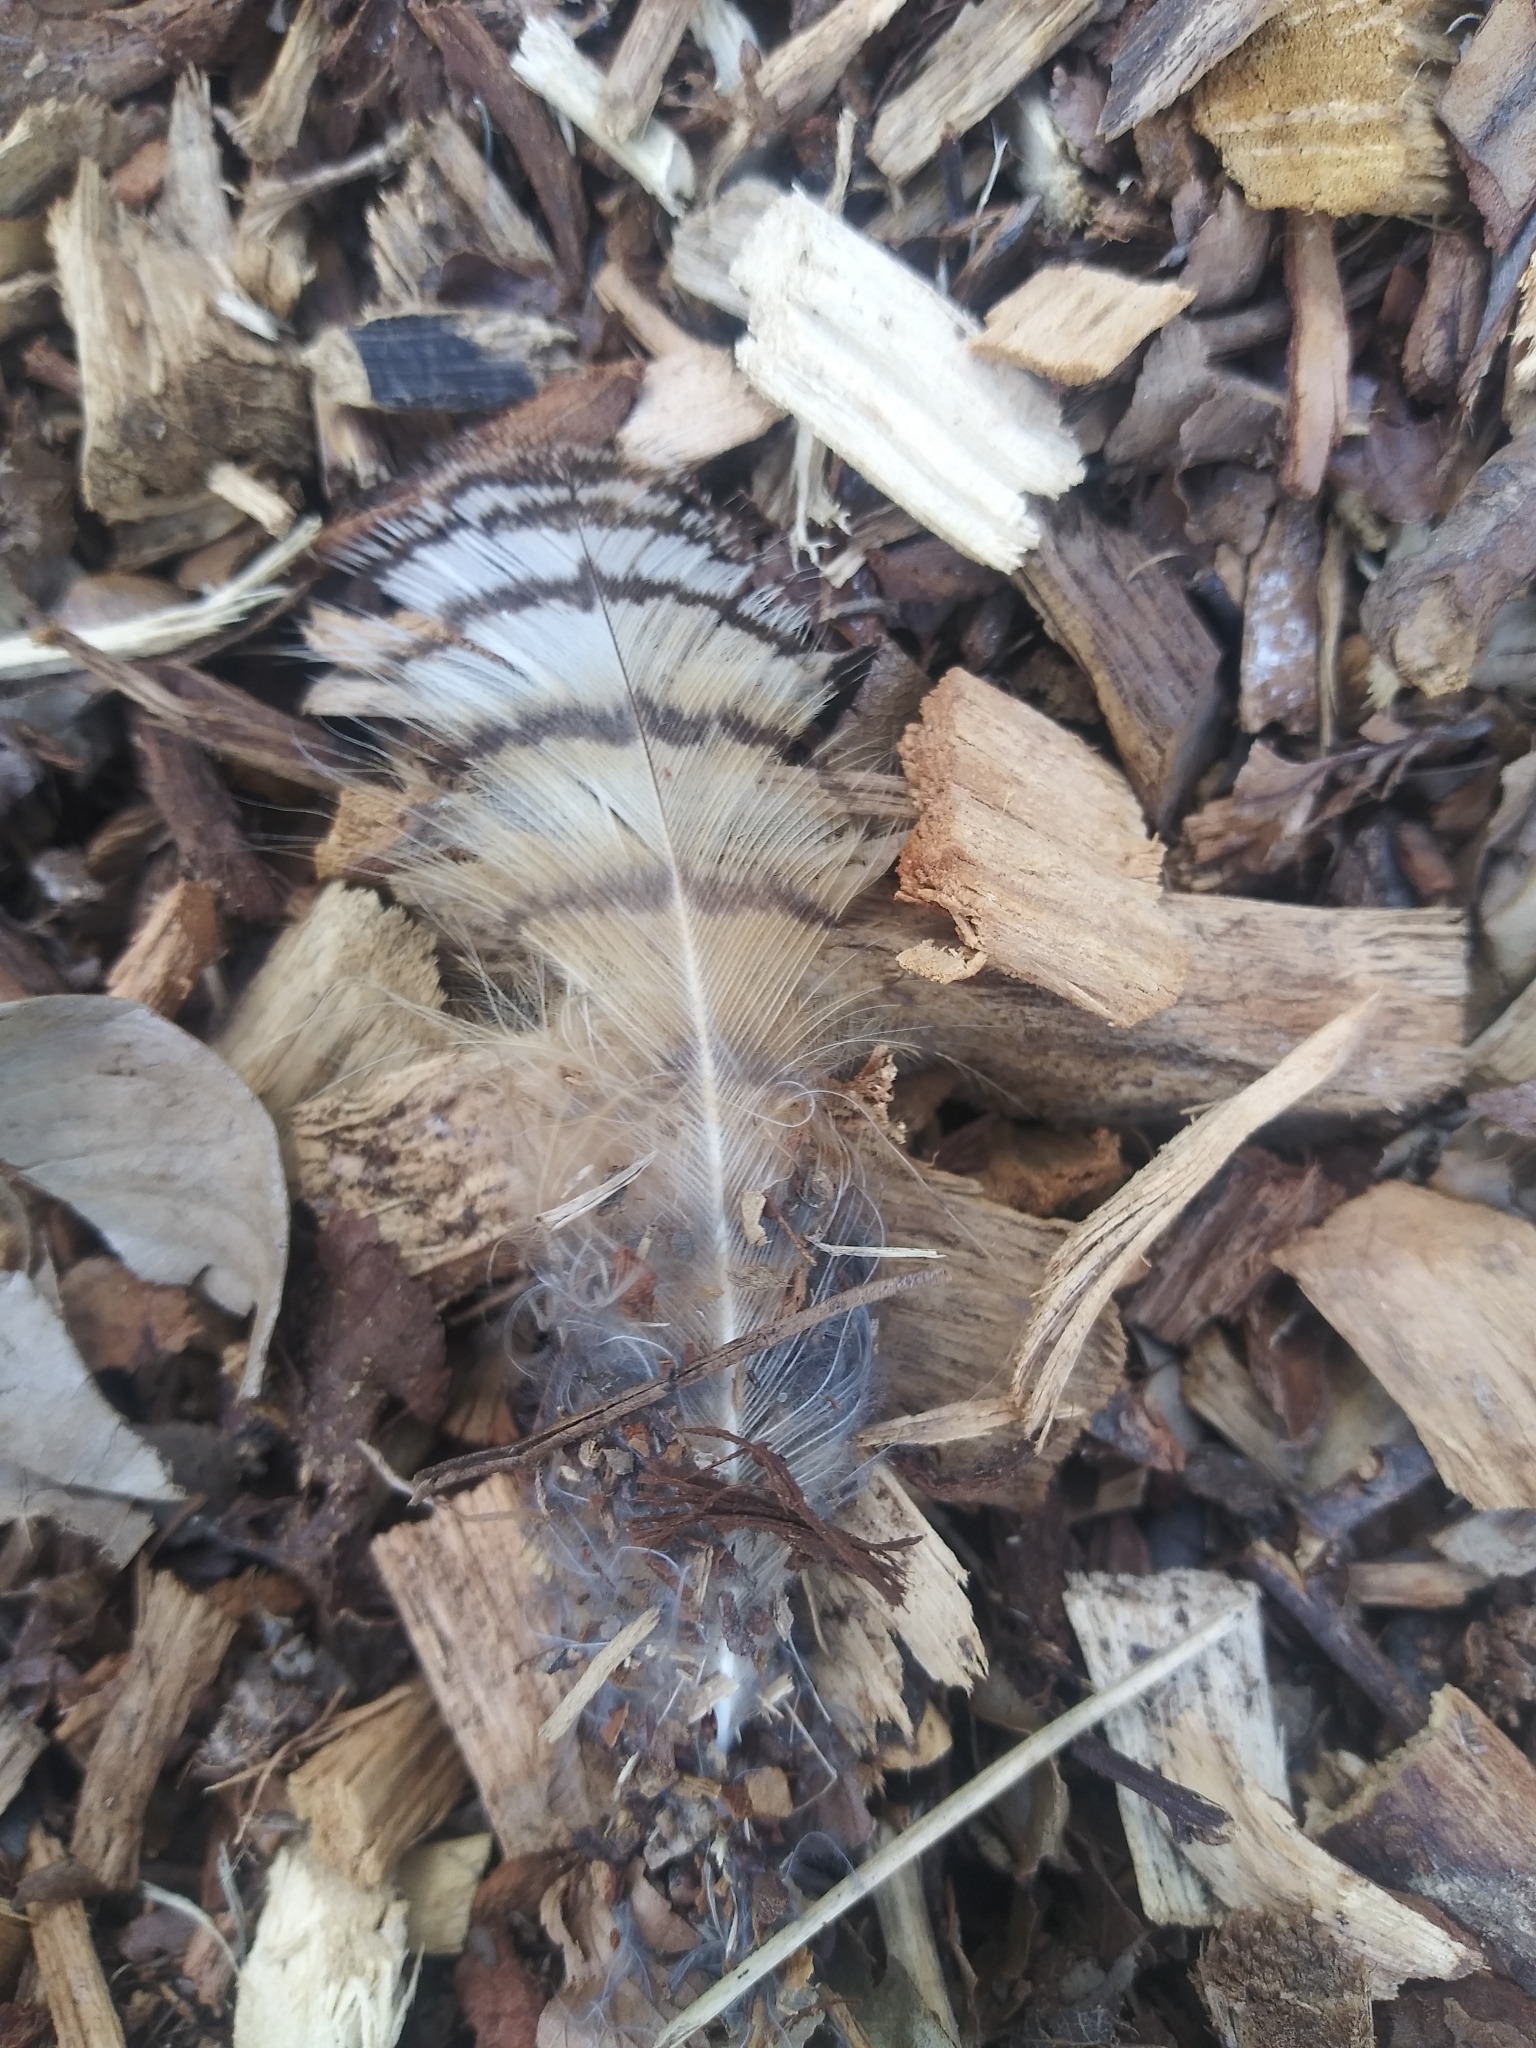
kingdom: Animalia
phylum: Chordata
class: Aves
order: Strigiformes
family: Strigidae
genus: Bubo
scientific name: Bubo virginianus
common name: Great horned owl
